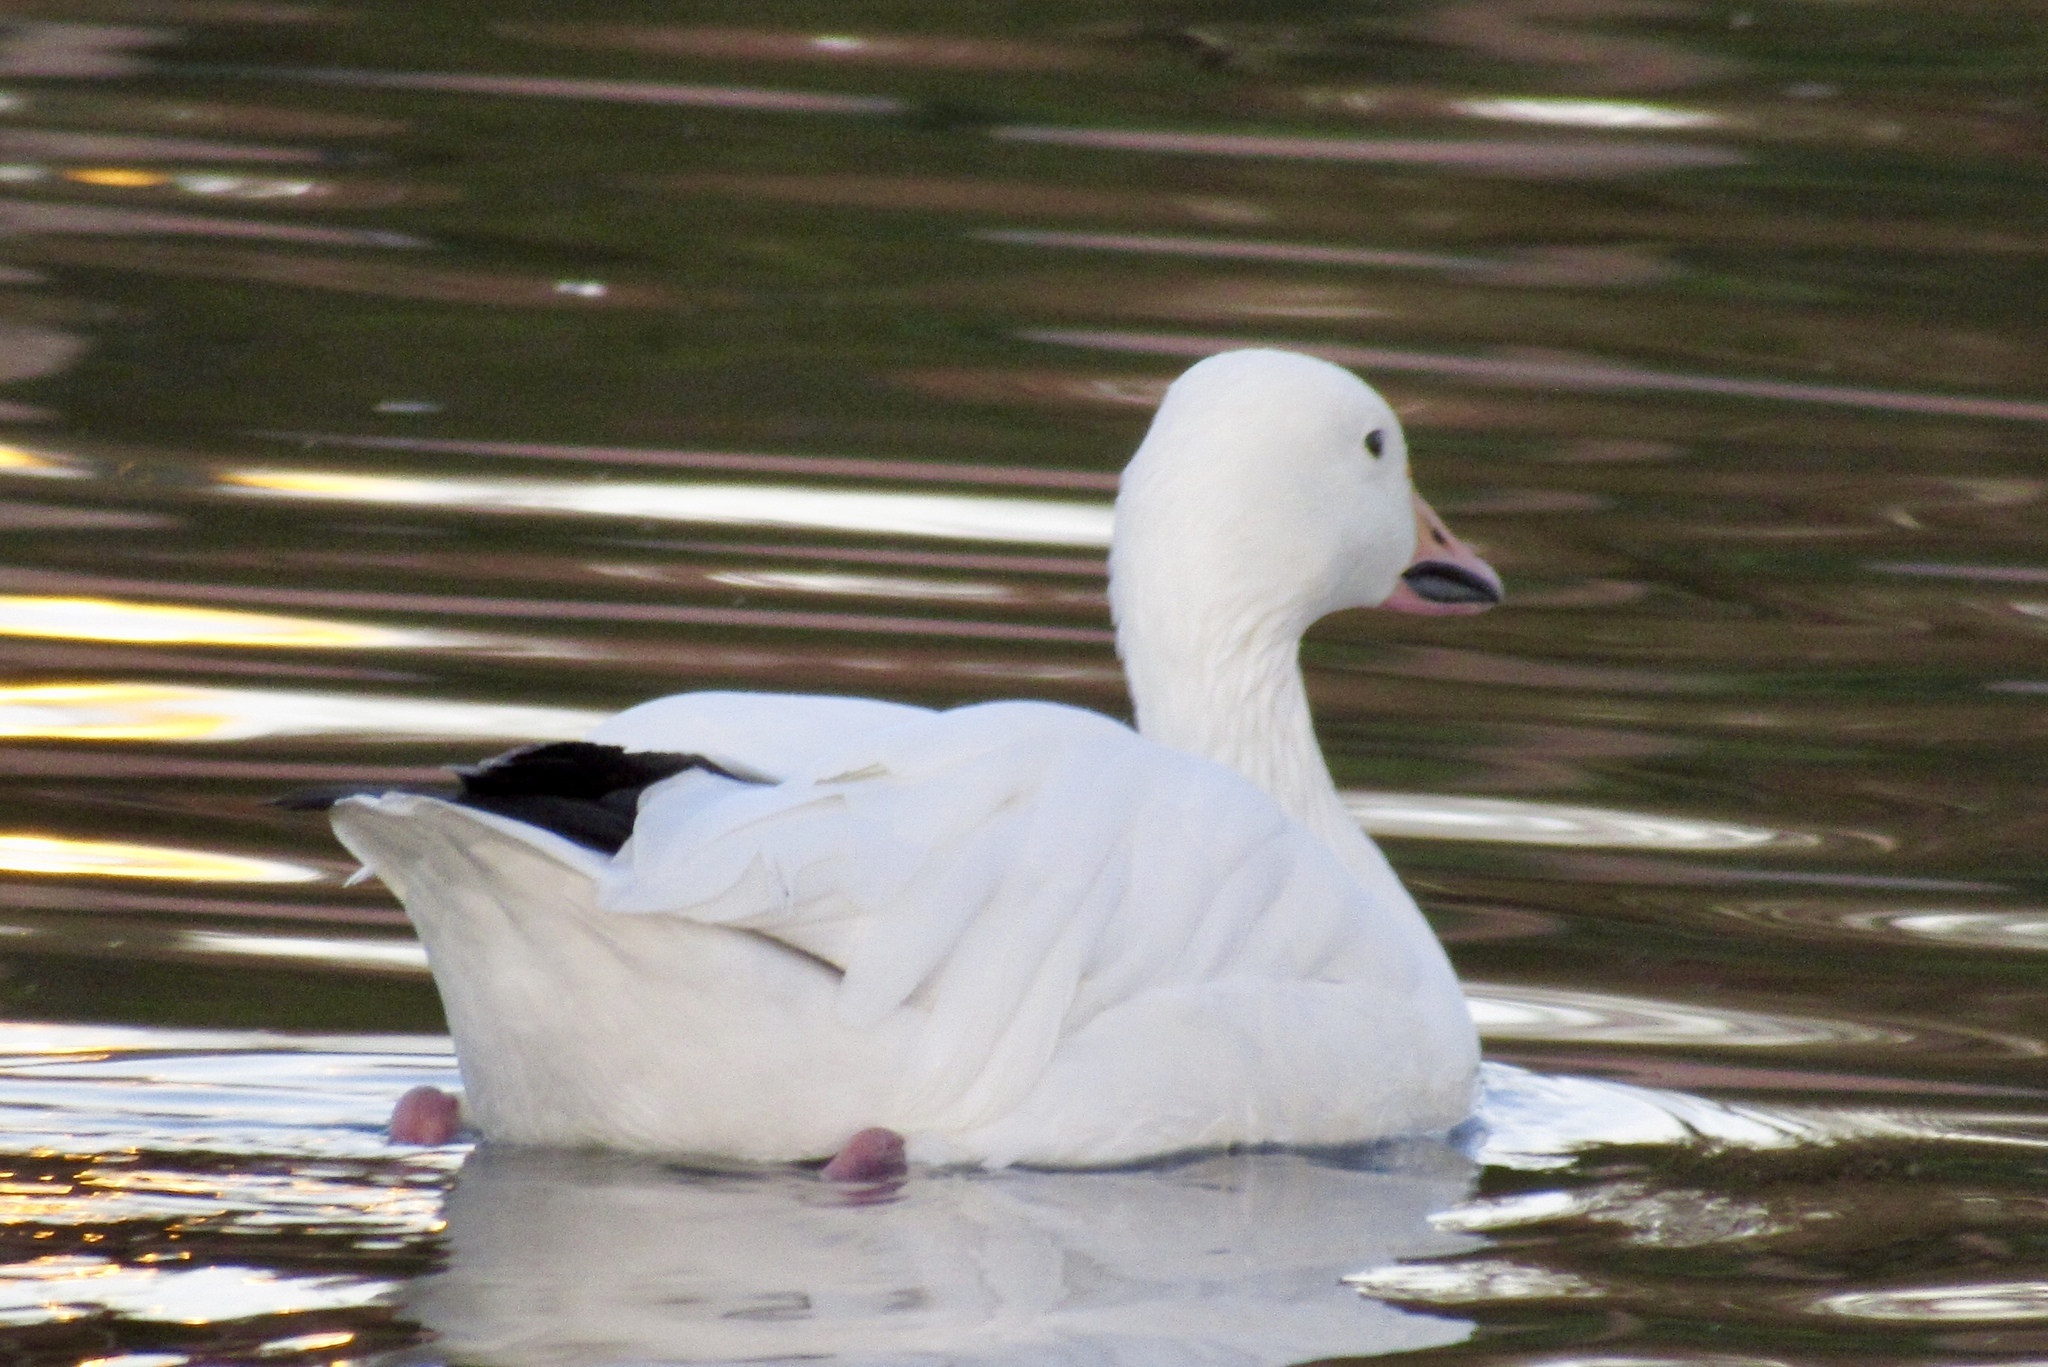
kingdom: Animalia
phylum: Chordata
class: Aves
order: Anseriformes
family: Anatidae
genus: Anser
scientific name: Anser caerulescens
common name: Snow goose
